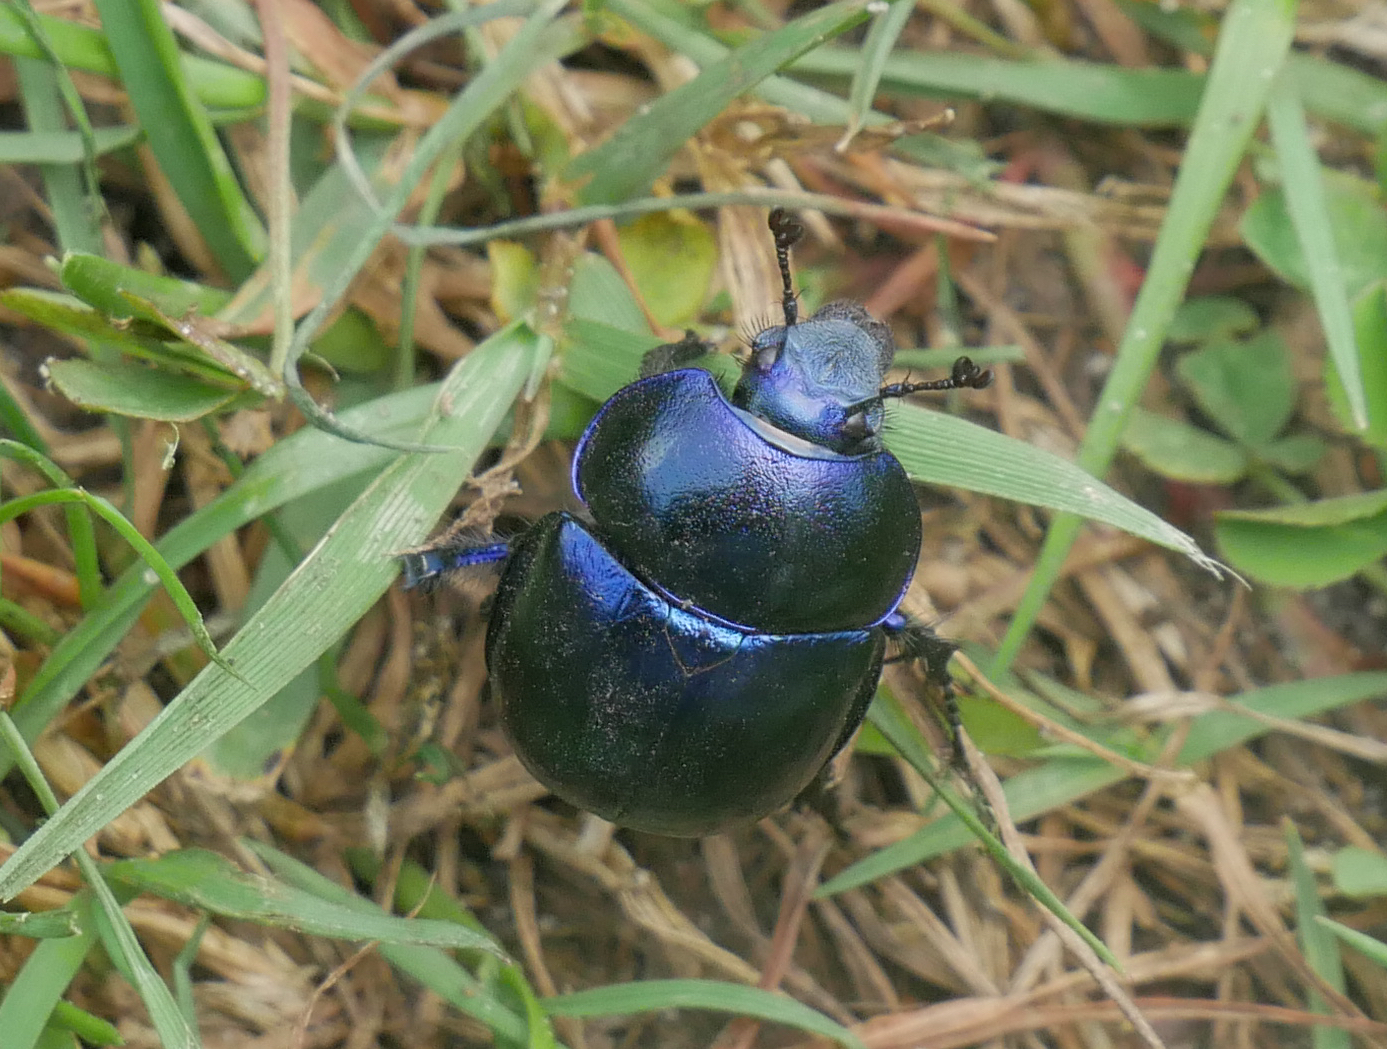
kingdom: Animalia
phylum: Arthropoda
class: Insecta
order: Coleoptera
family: Geotrupidae
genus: Trypocopris
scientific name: Trypocopris vernalis
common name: Spring dumbledor
